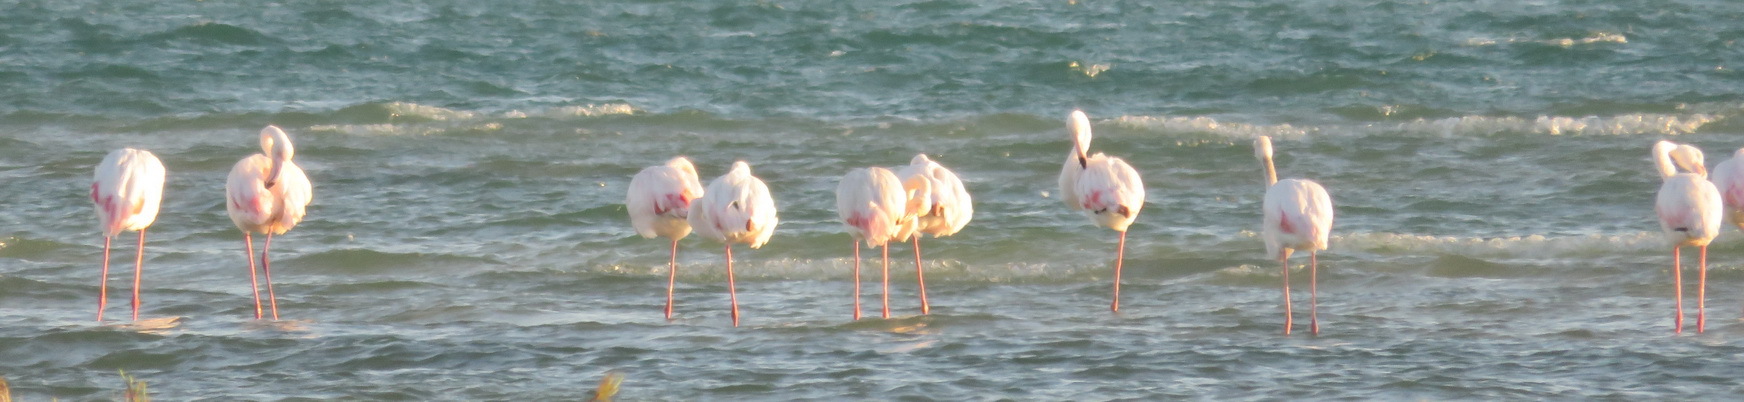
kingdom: Animalia
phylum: Chordata
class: Aves
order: Phoenicopteriformes
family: Phoenicopteridae
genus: Phoenicopterus
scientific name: Phoenicopterus roseus
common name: Greater flamingo
